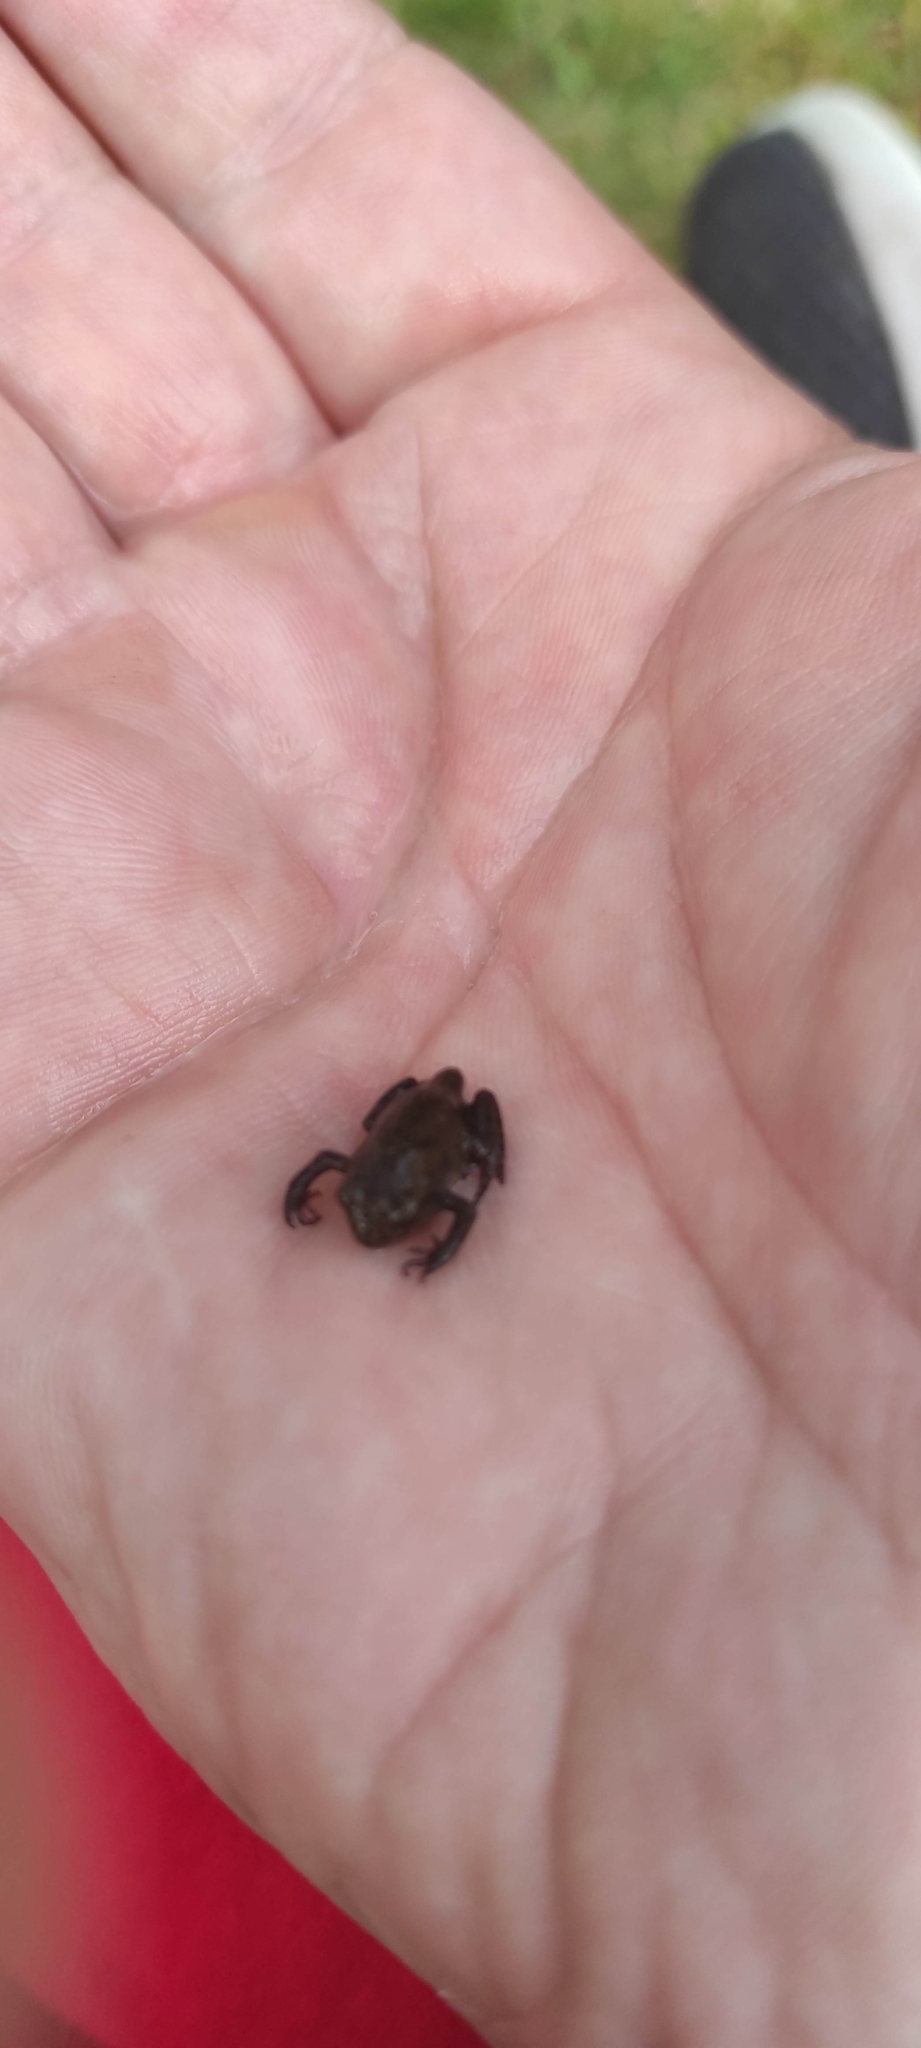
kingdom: Animalia
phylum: Chordata
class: Amphibia
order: Anura
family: Bufonidae
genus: Bufo
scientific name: Bufo bufo
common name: Common toad
